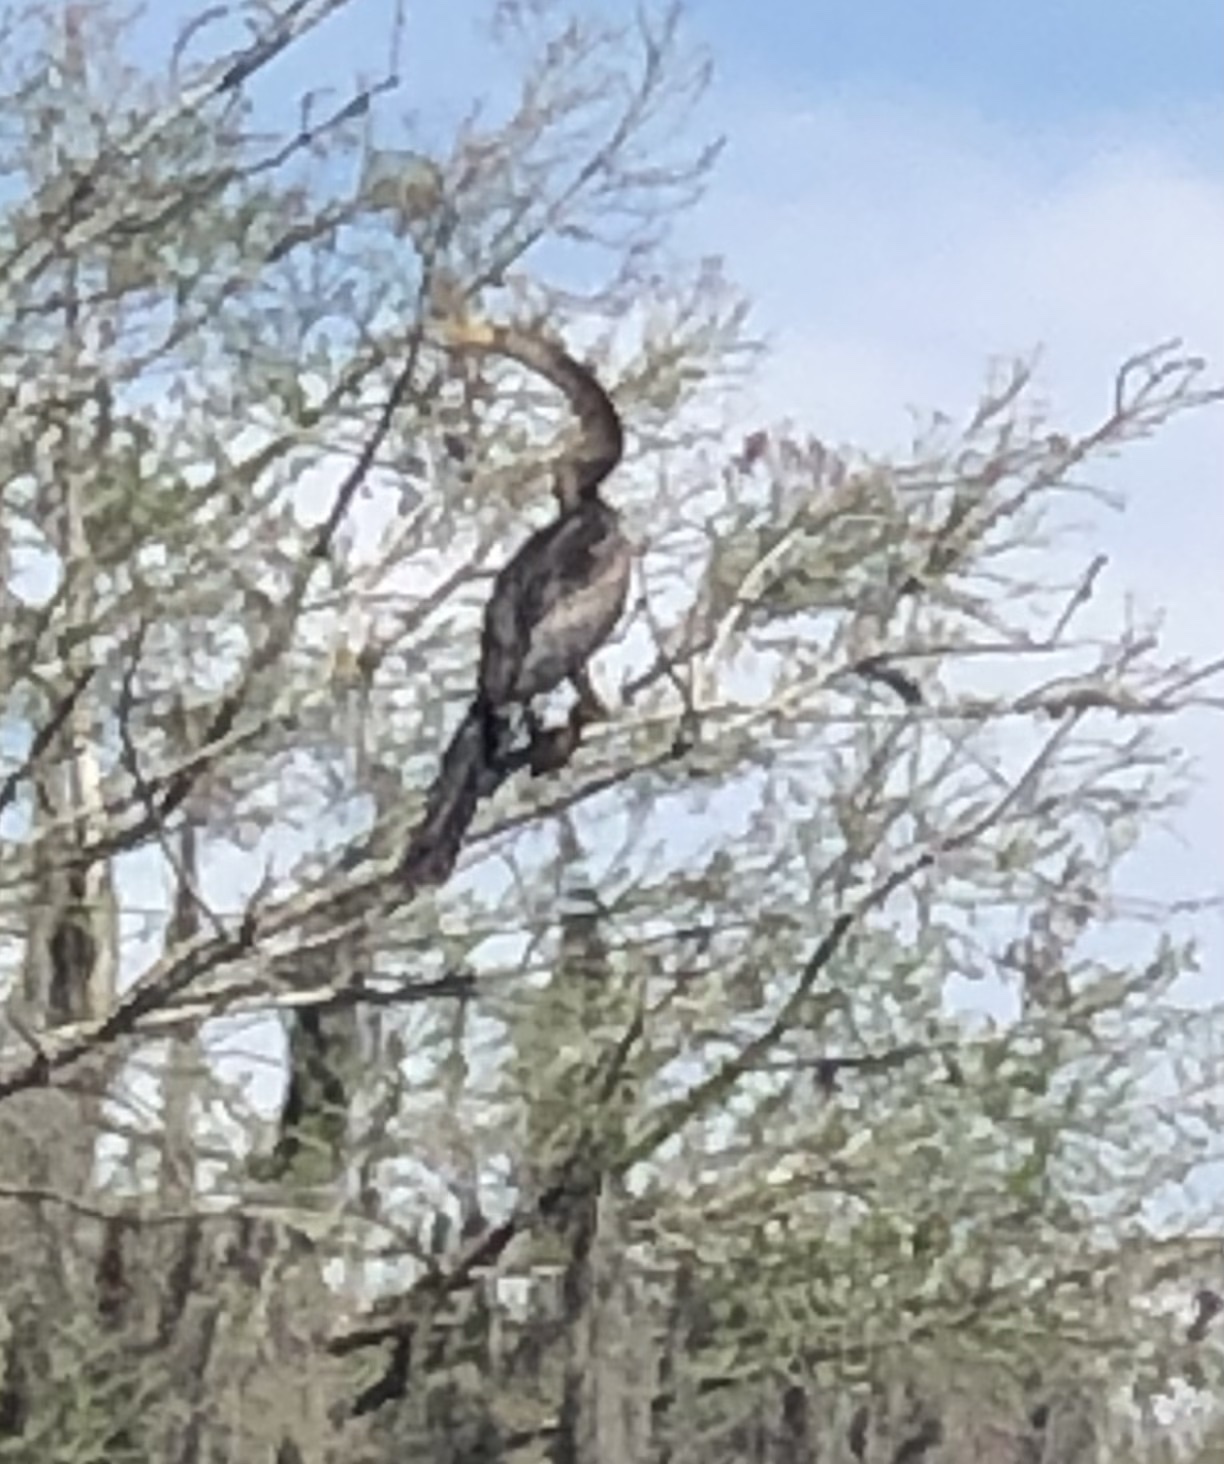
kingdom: Animalia
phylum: Chordata
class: Aves
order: Suliformes
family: Anhingidae
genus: Anhinga
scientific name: Anhinga anhinga
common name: Anhinga
